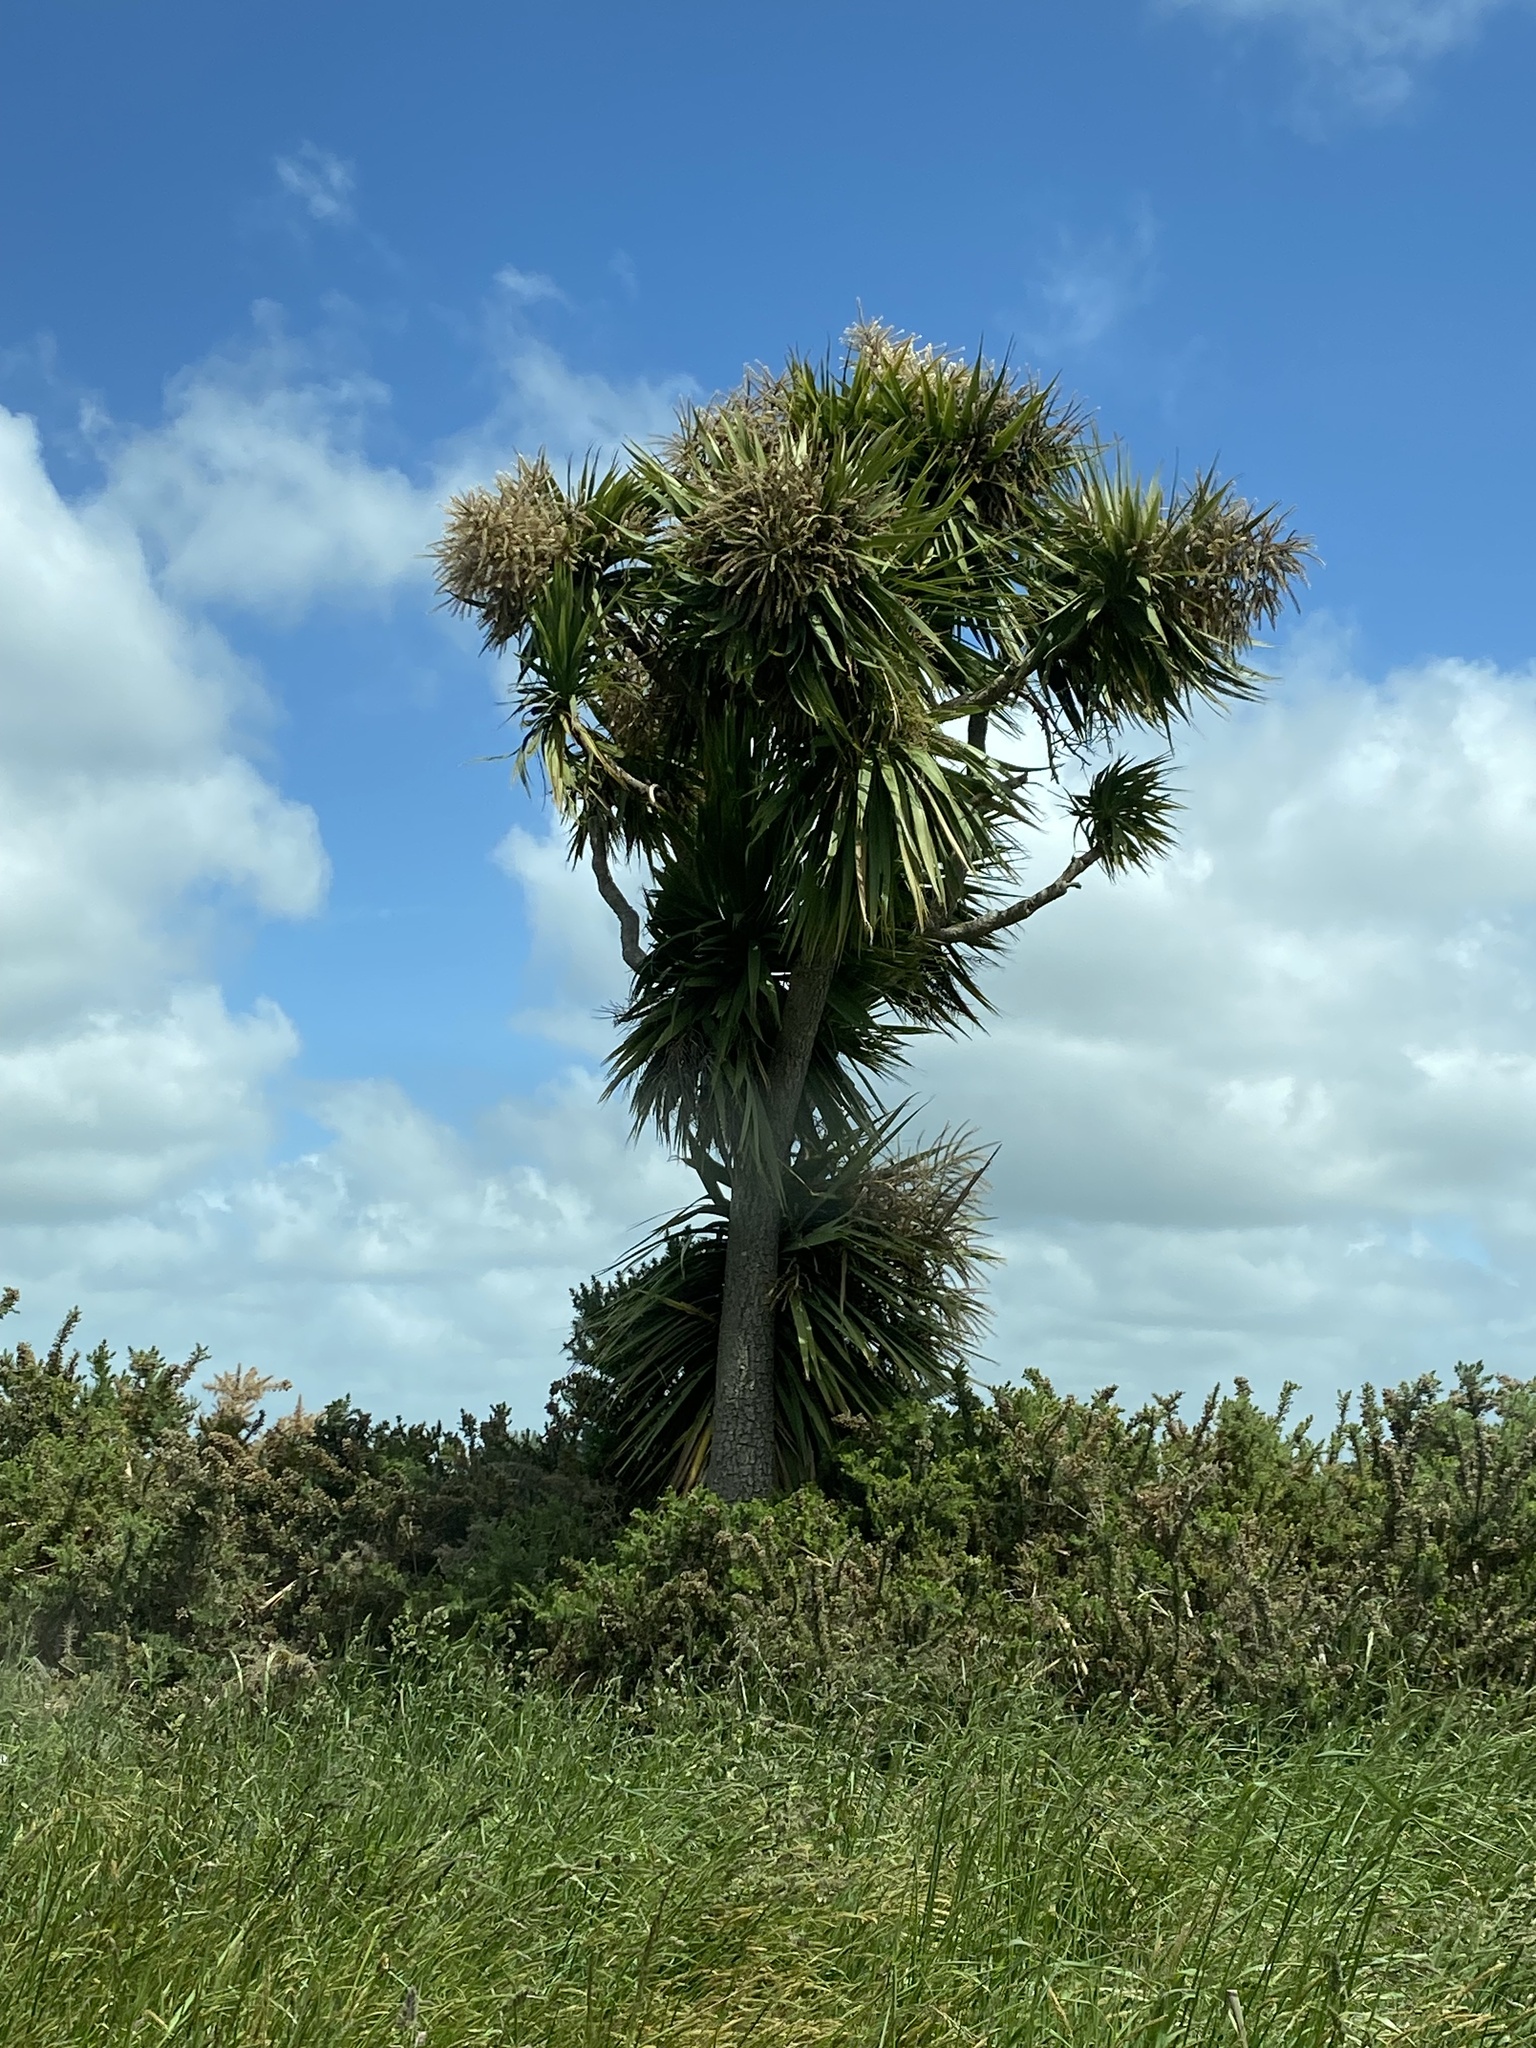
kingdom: Plantae
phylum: Tracheophyta
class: Liliopsida
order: Asparagales
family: Asparagaceae
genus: Cordyline
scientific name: Cordyline australis
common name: Cabbage-palm
